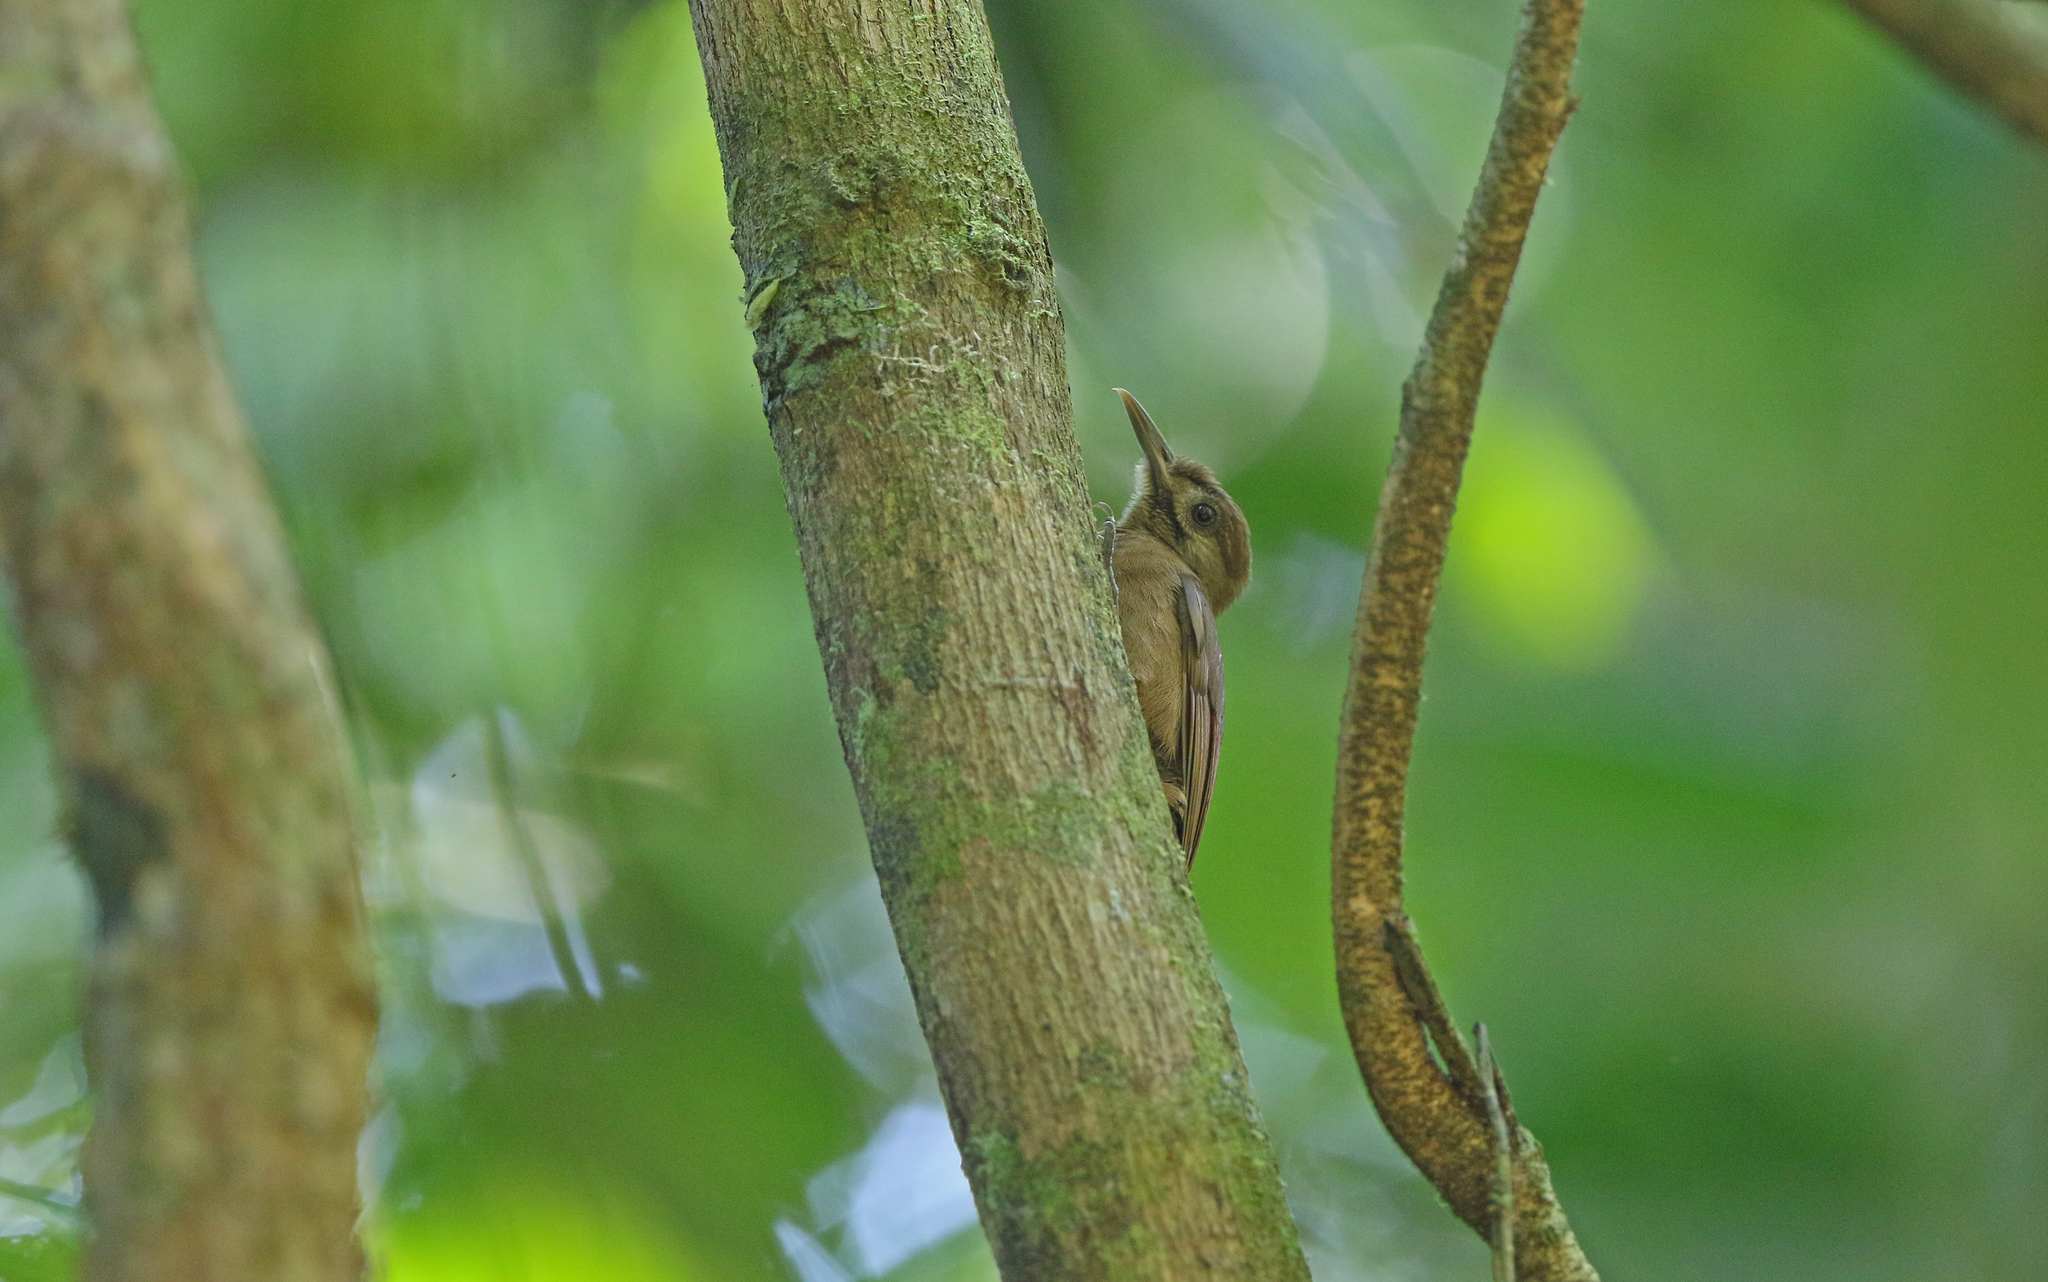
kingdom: Animalia
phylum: Chordata
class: Aves
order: Passeriformes
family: Furnariidae
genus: Dendrocincla
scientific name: Dendrocincla fuliginosa
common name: Plain-brown woodcreeper
